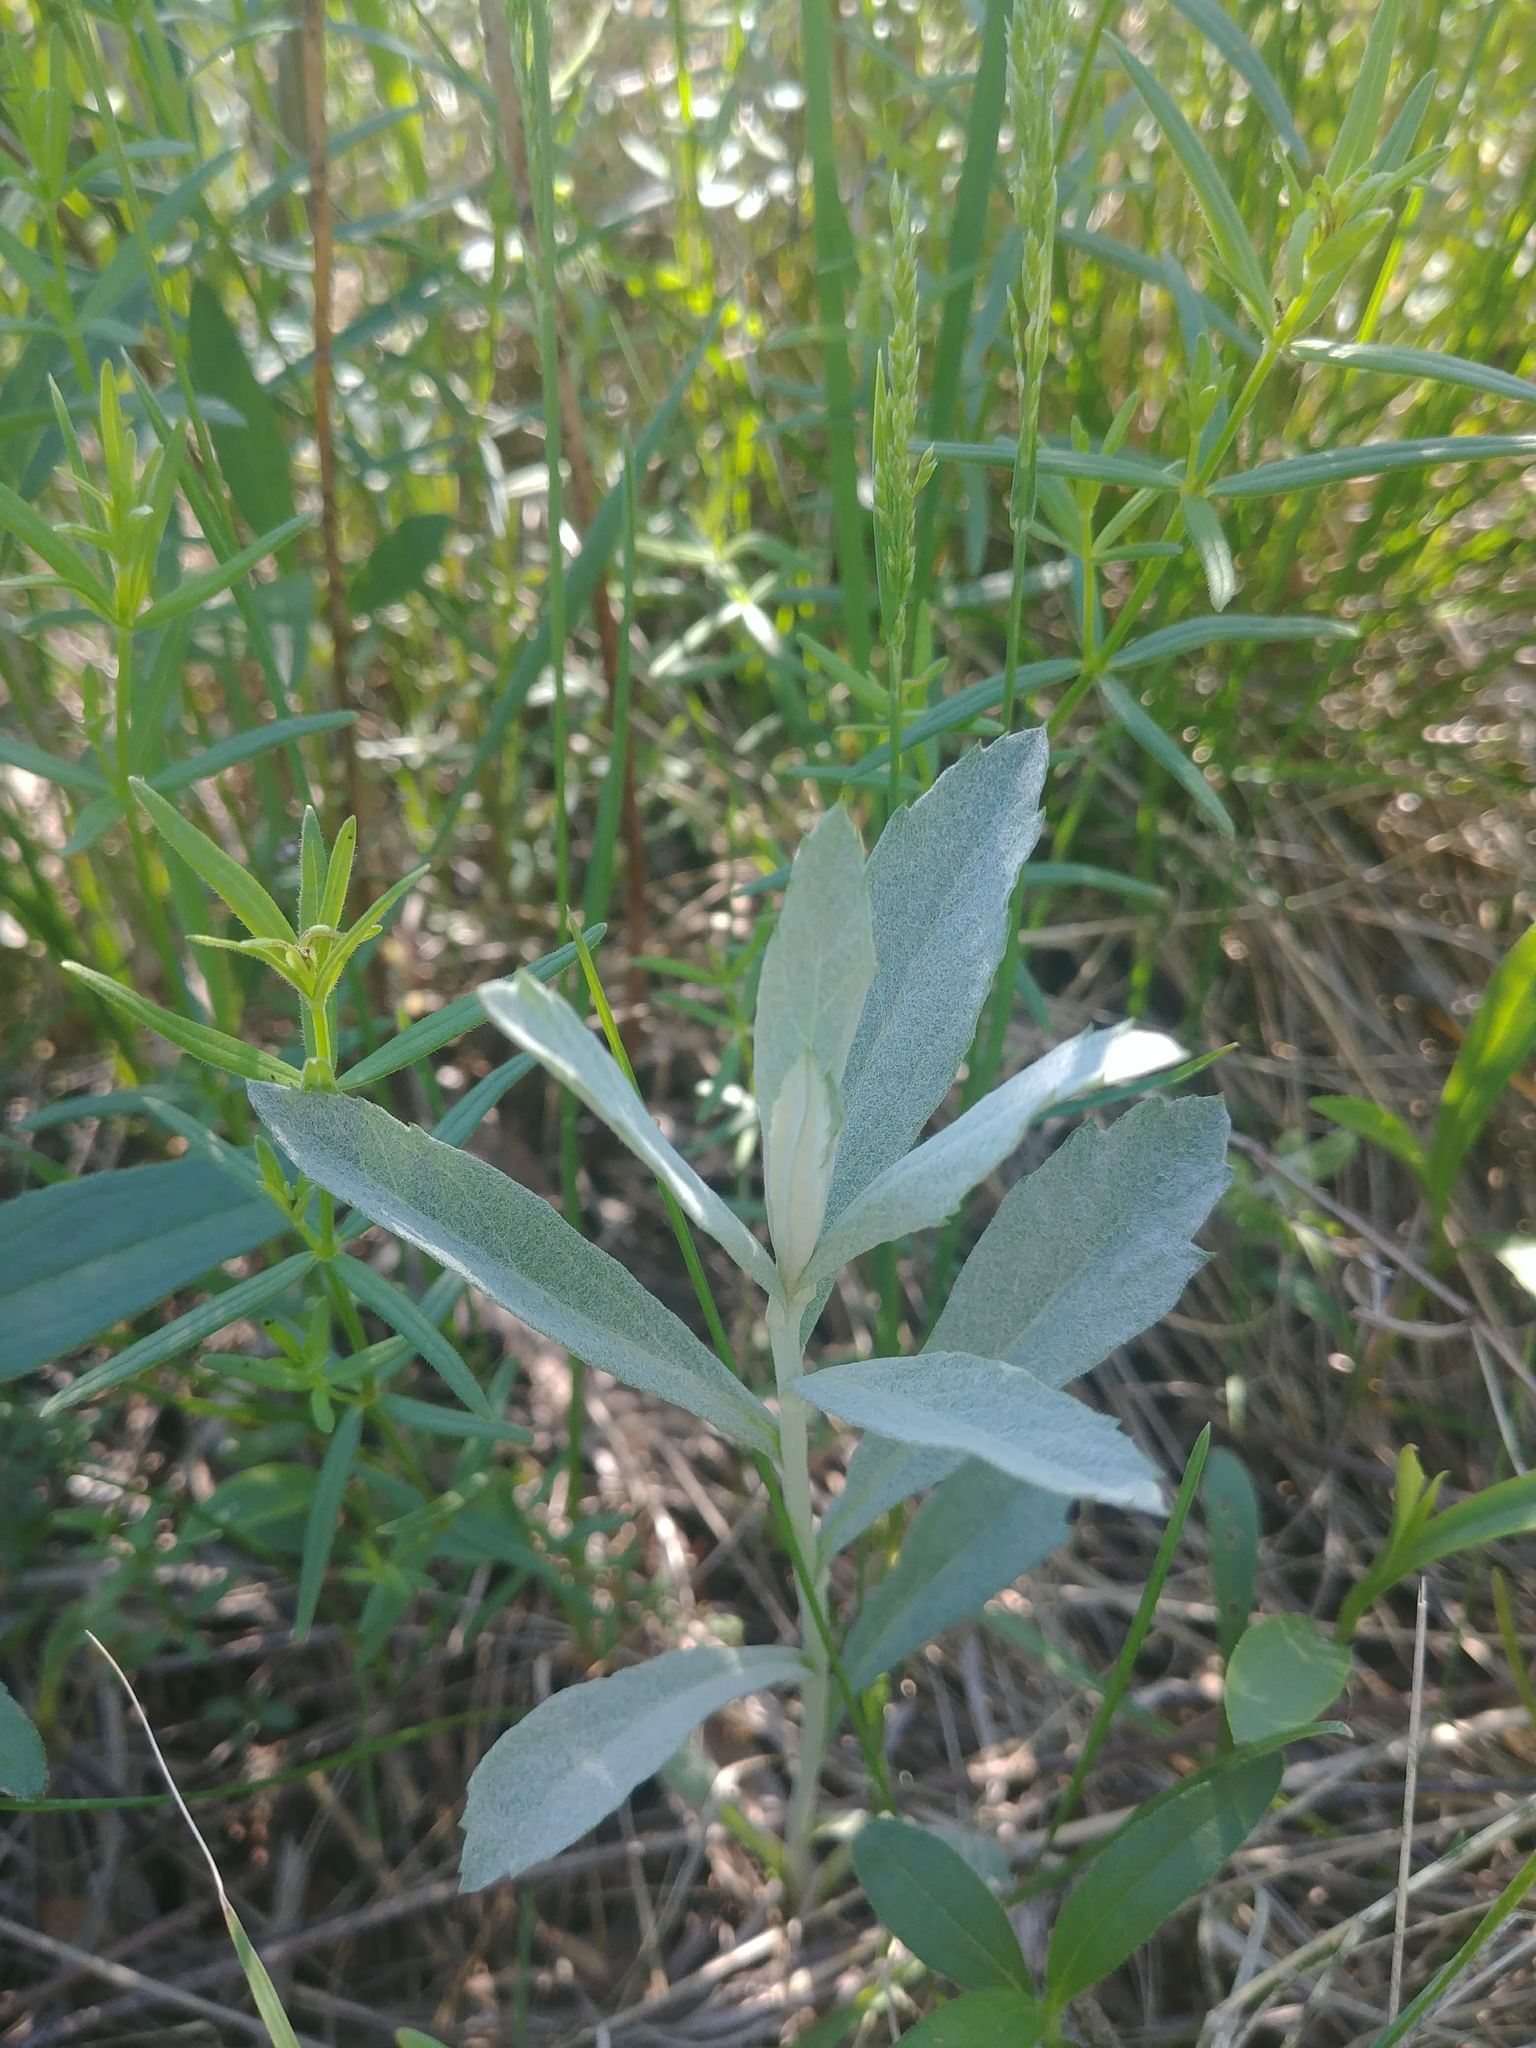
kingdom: Plantae
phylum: Tracheophyta
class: Magnoliopsida
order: Asterales
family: Asteraceae
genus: Artemisia
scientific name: Artemisia ludoviciana
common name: Western mugwort
